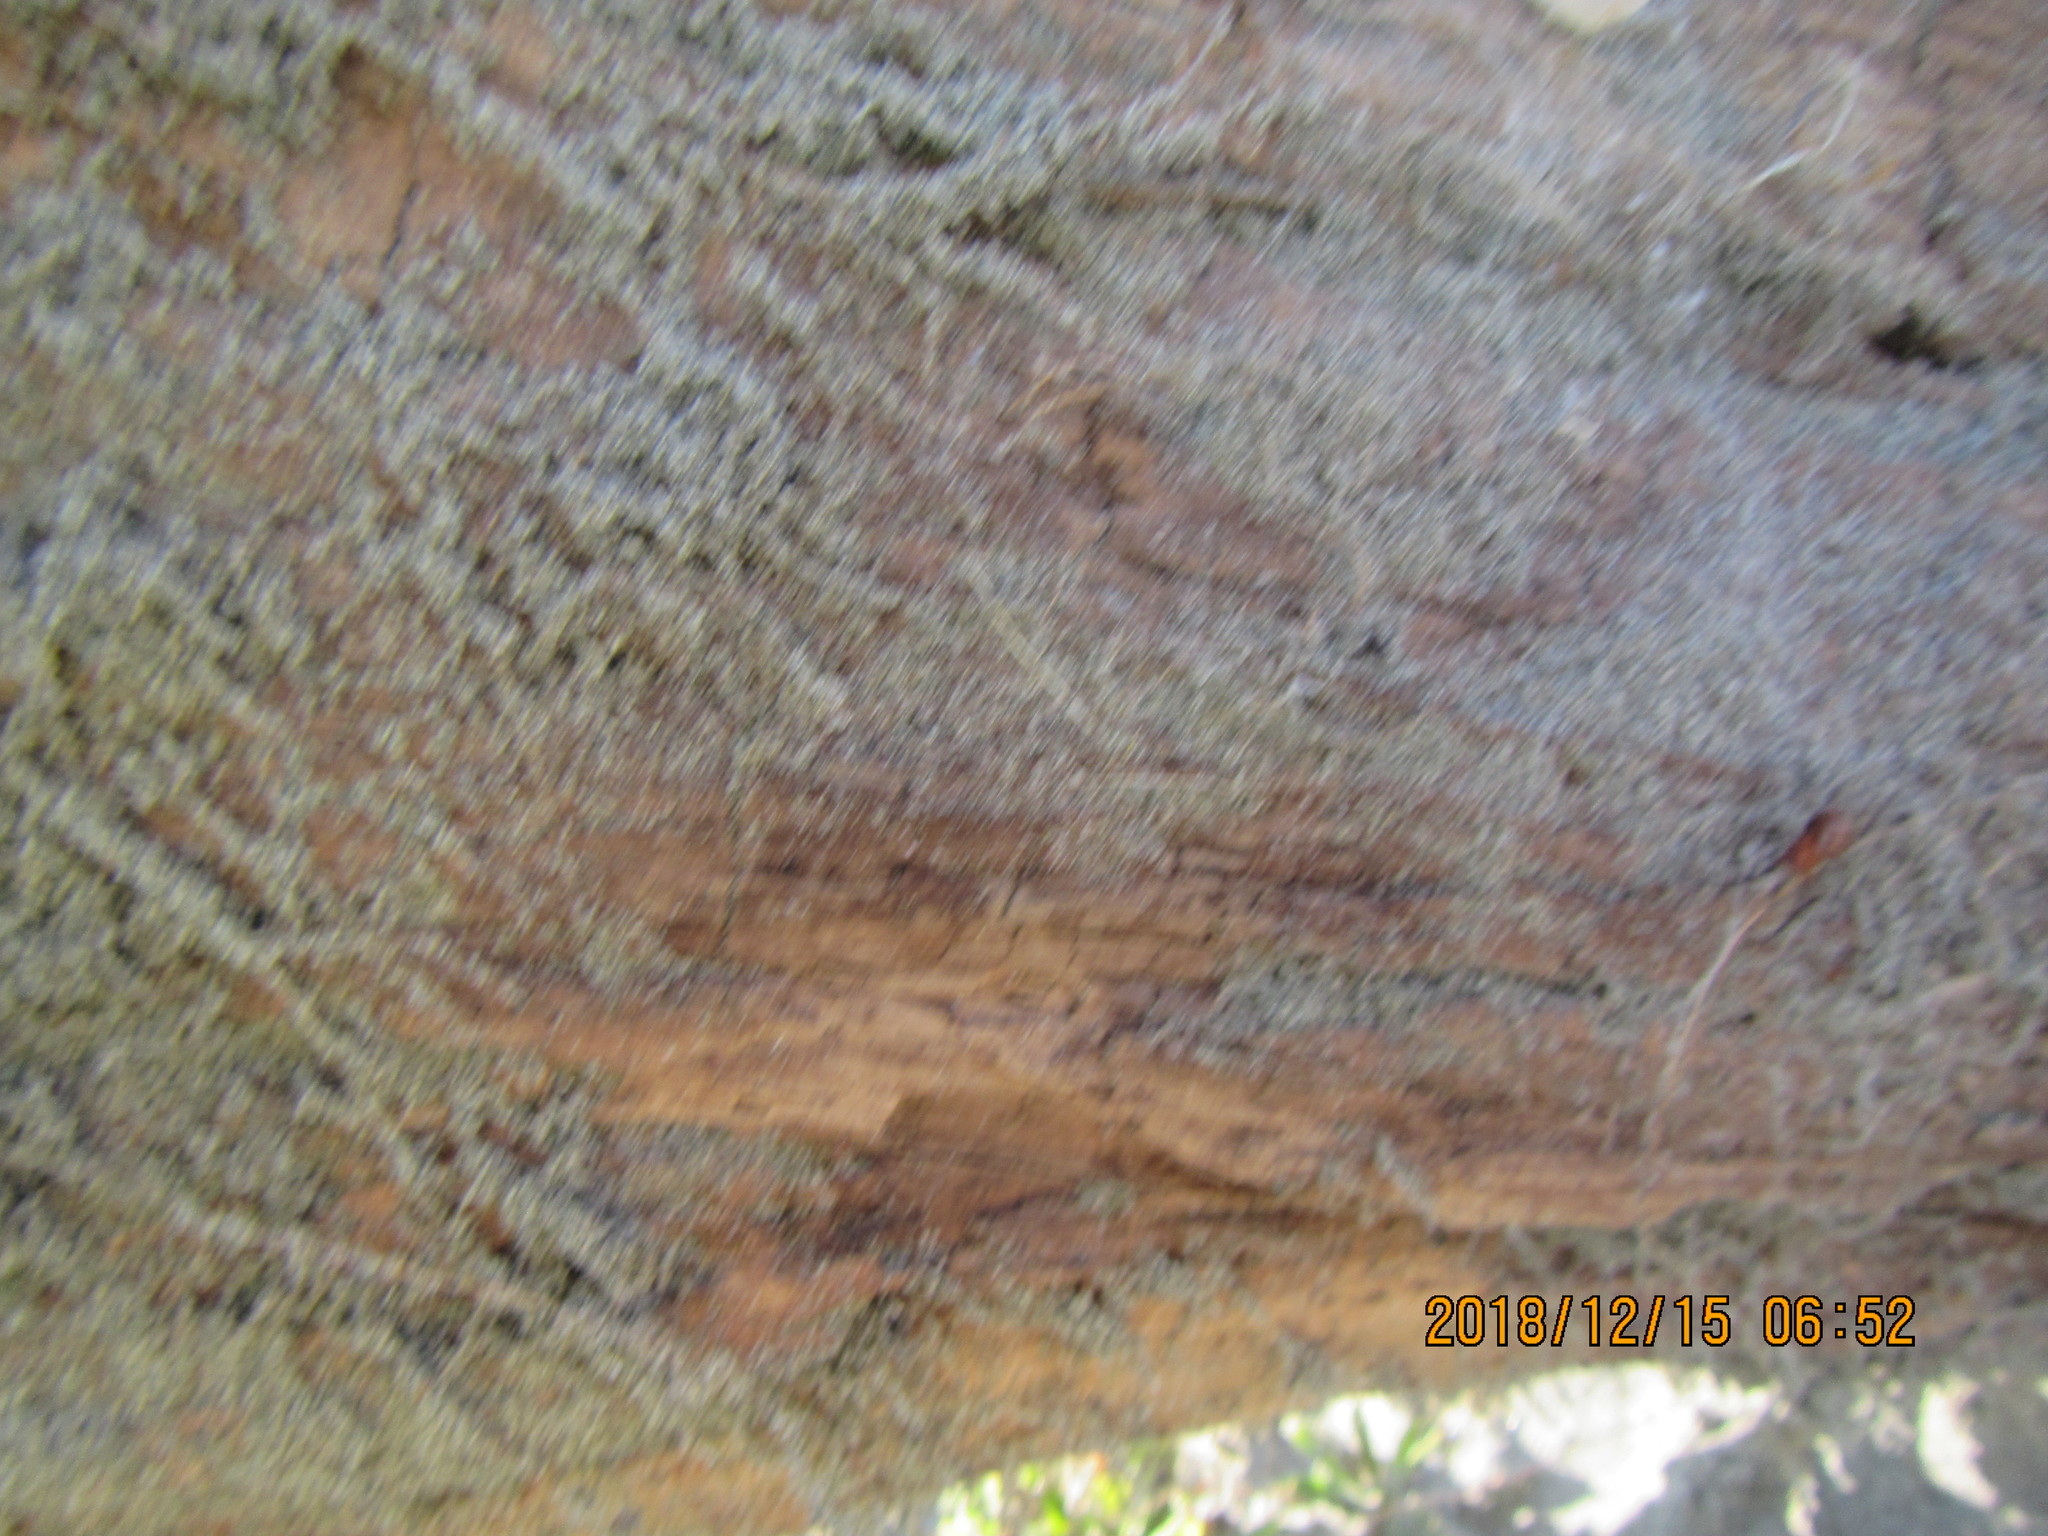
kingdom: Animalia
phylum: Arthropoda
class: Insecta
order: Dermaptera
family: Anisolabididae
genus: Anisolabis
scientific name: Anisolabis littorea
